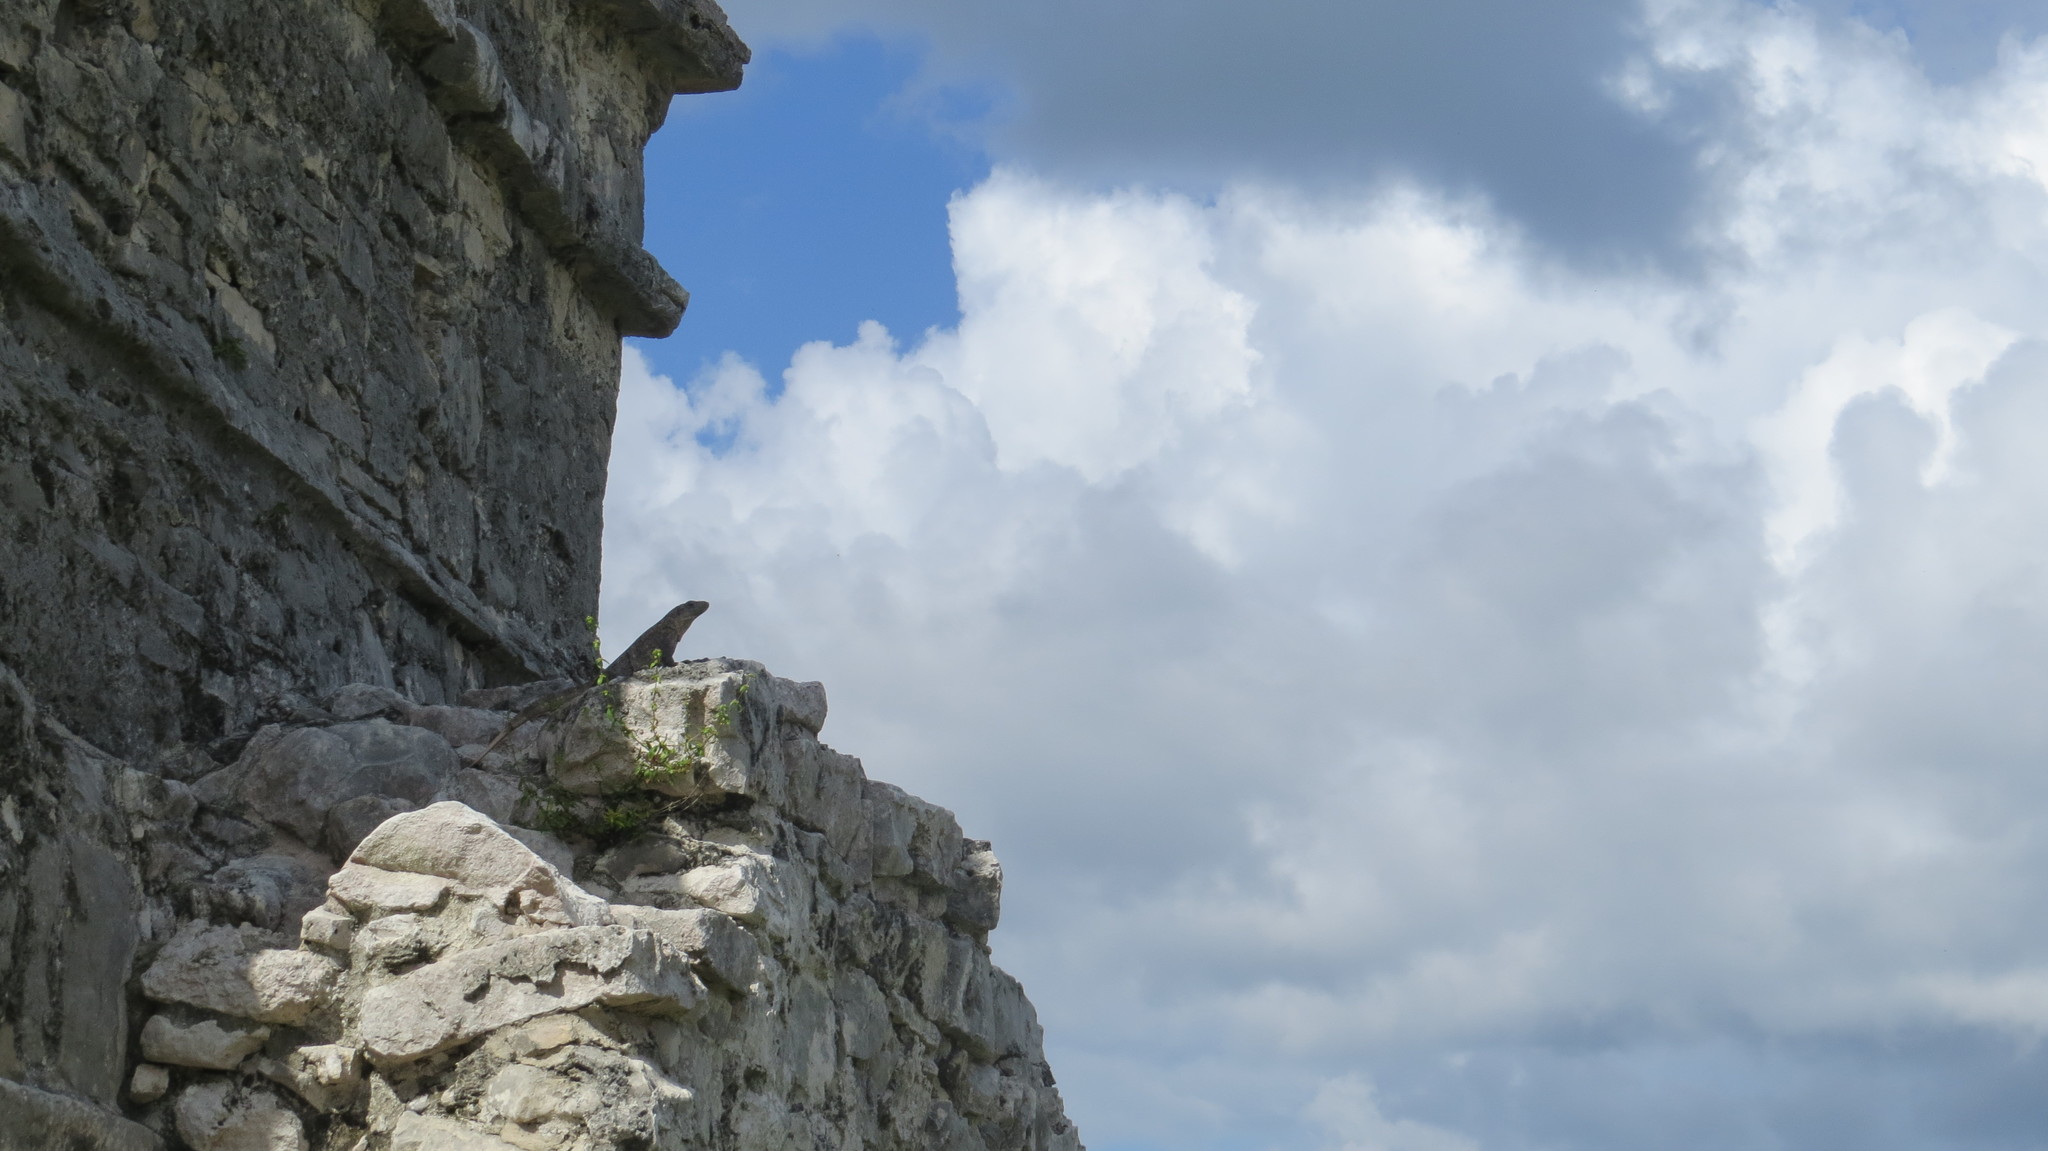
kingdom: Animalia
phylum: Chordata
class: Squamata
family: Iguanidae
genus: Ctenosaura
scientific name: Ctenosaura similis
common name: Black spiny-tailed iguana
